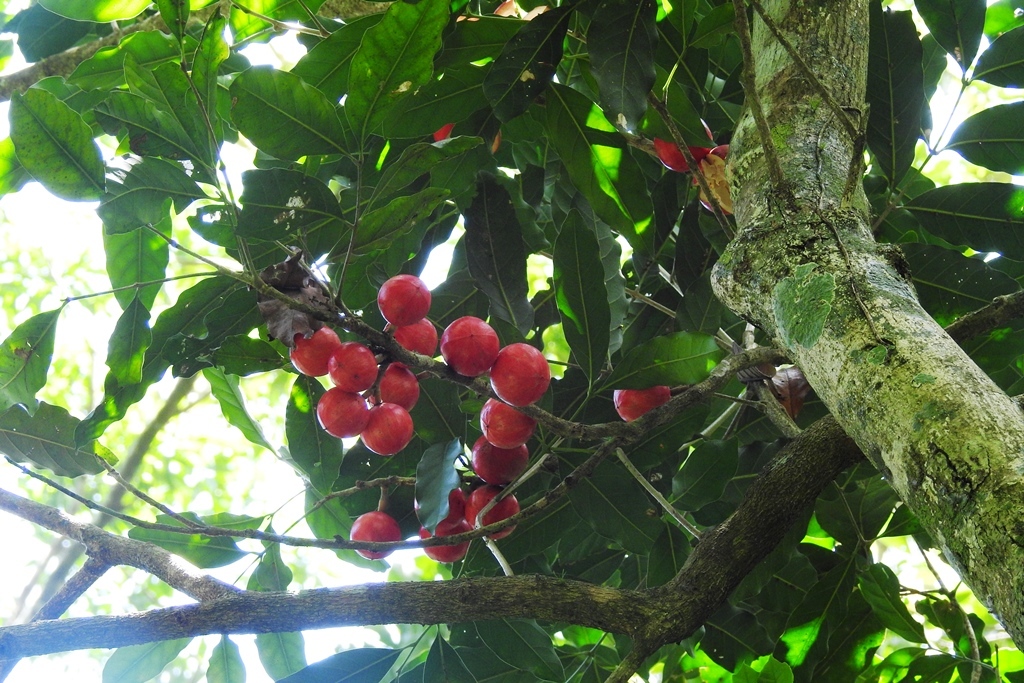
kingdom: Plantae
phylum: Tracheophyta
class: Magnoliopsida
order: Sapindales
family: Meliaceae
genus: Guarea
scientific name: Guarea guidonia
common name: American muskwood
